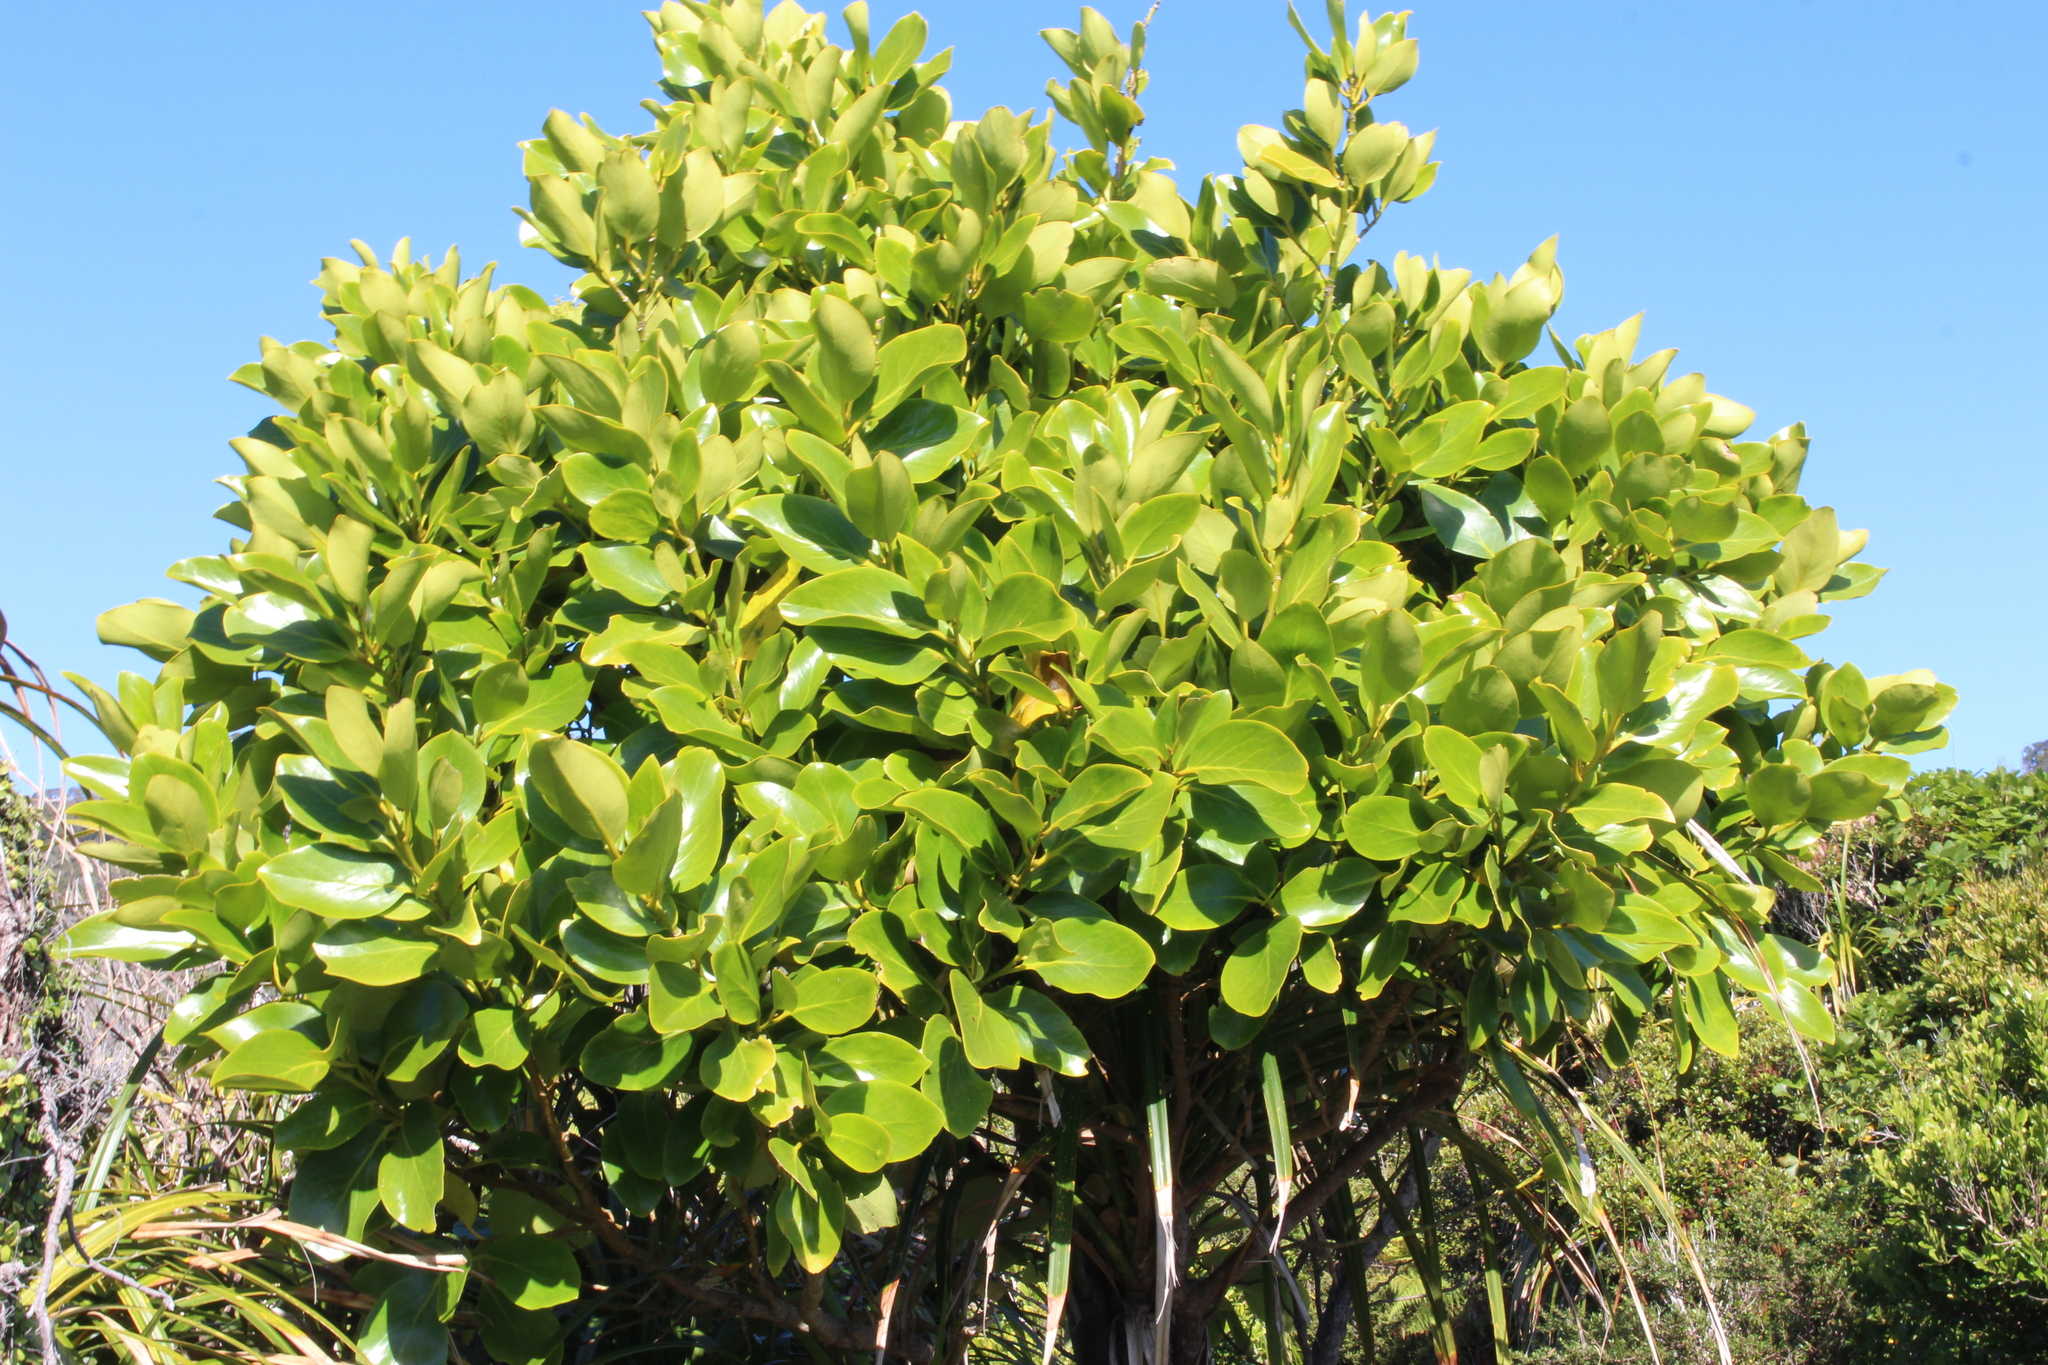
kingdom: Plantae
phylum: Tracheophyta
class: Magnoliopsida
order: Apiales
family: Griseliniaceae
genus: Griselinia
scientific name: Griselinia lucida
